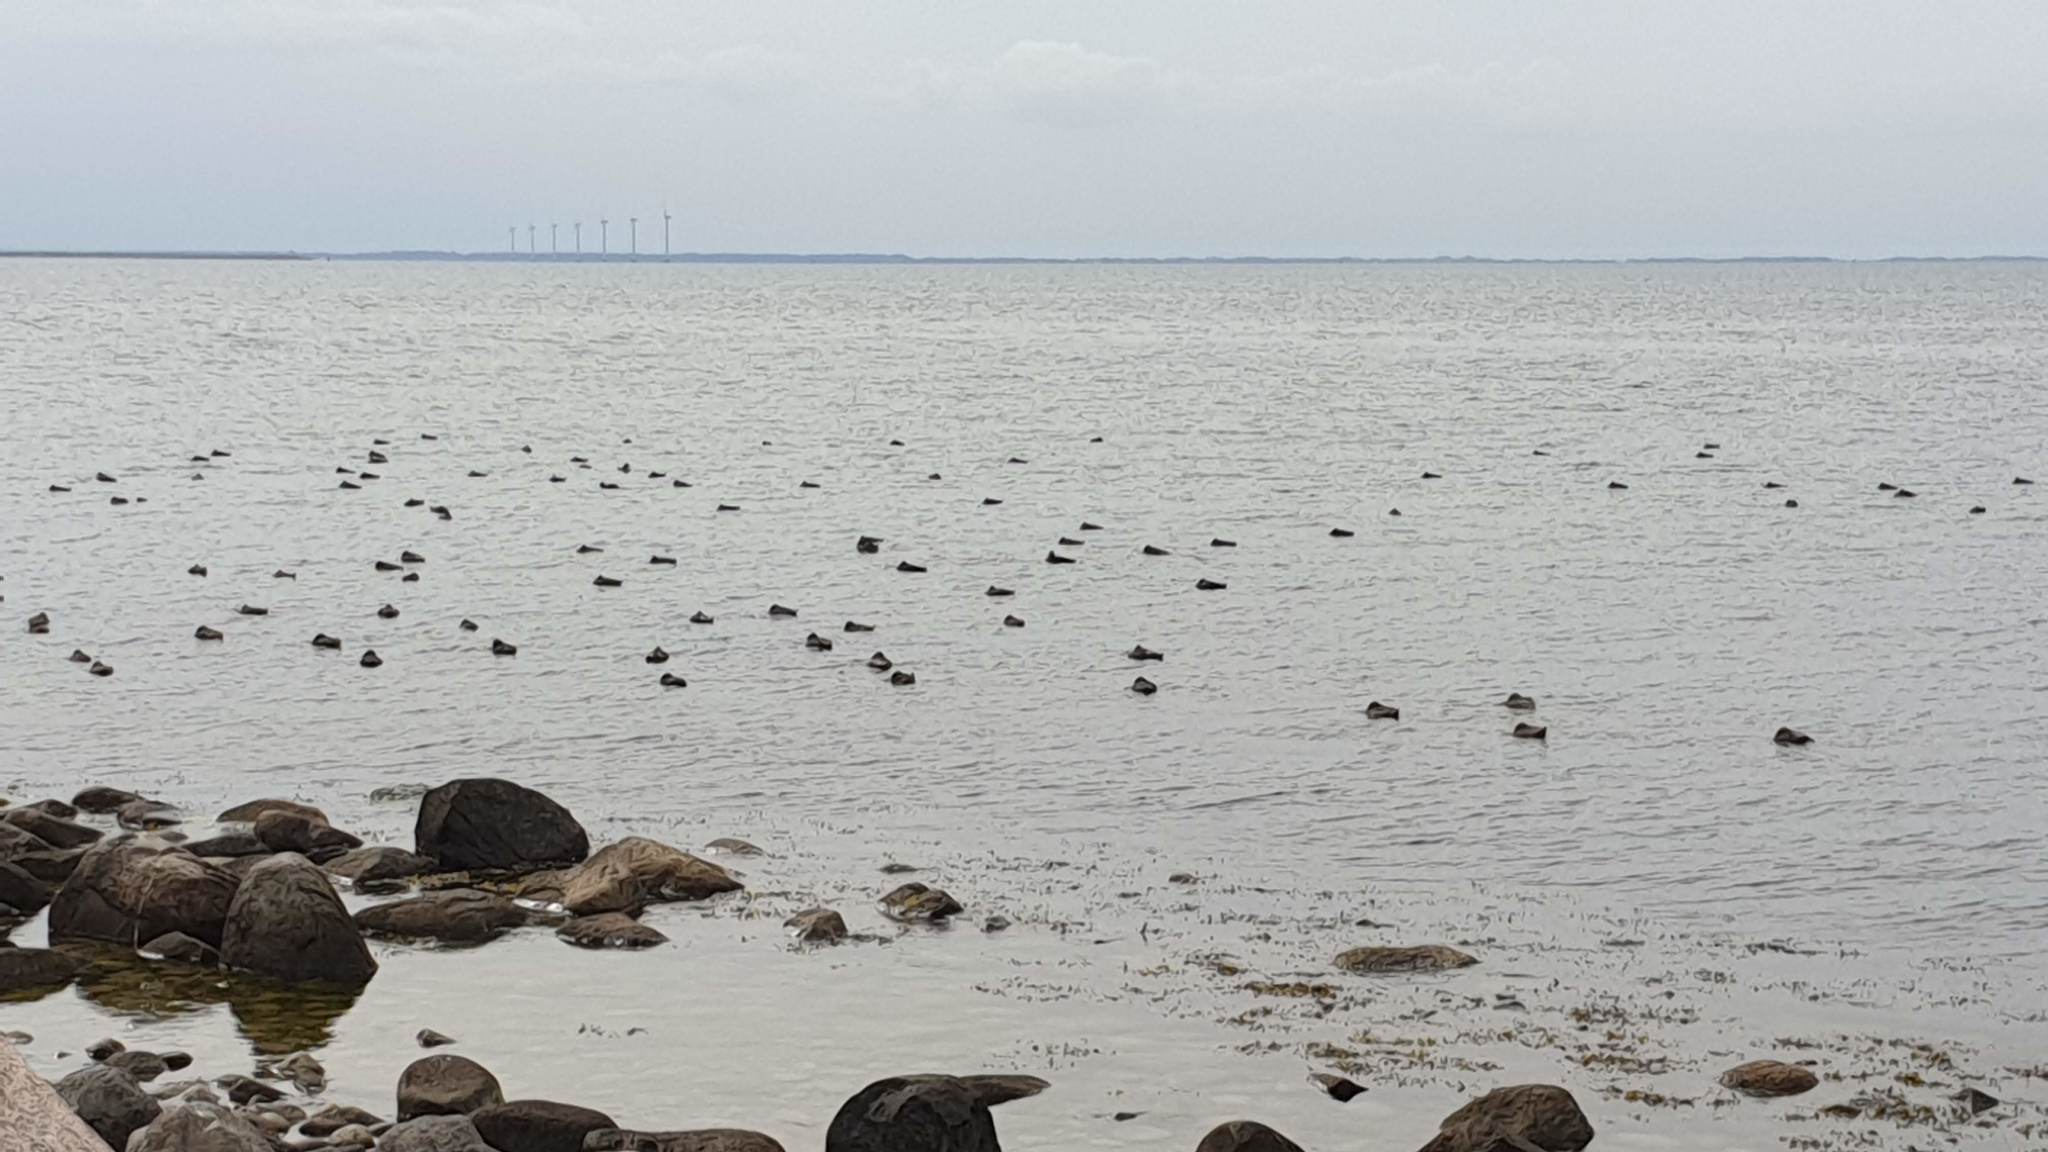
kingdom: Animalia
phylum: Chordata
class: Aves
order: Anseriformes
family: Anatidae
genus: Somateria
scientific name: Somateria mollissima
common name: Common eider
